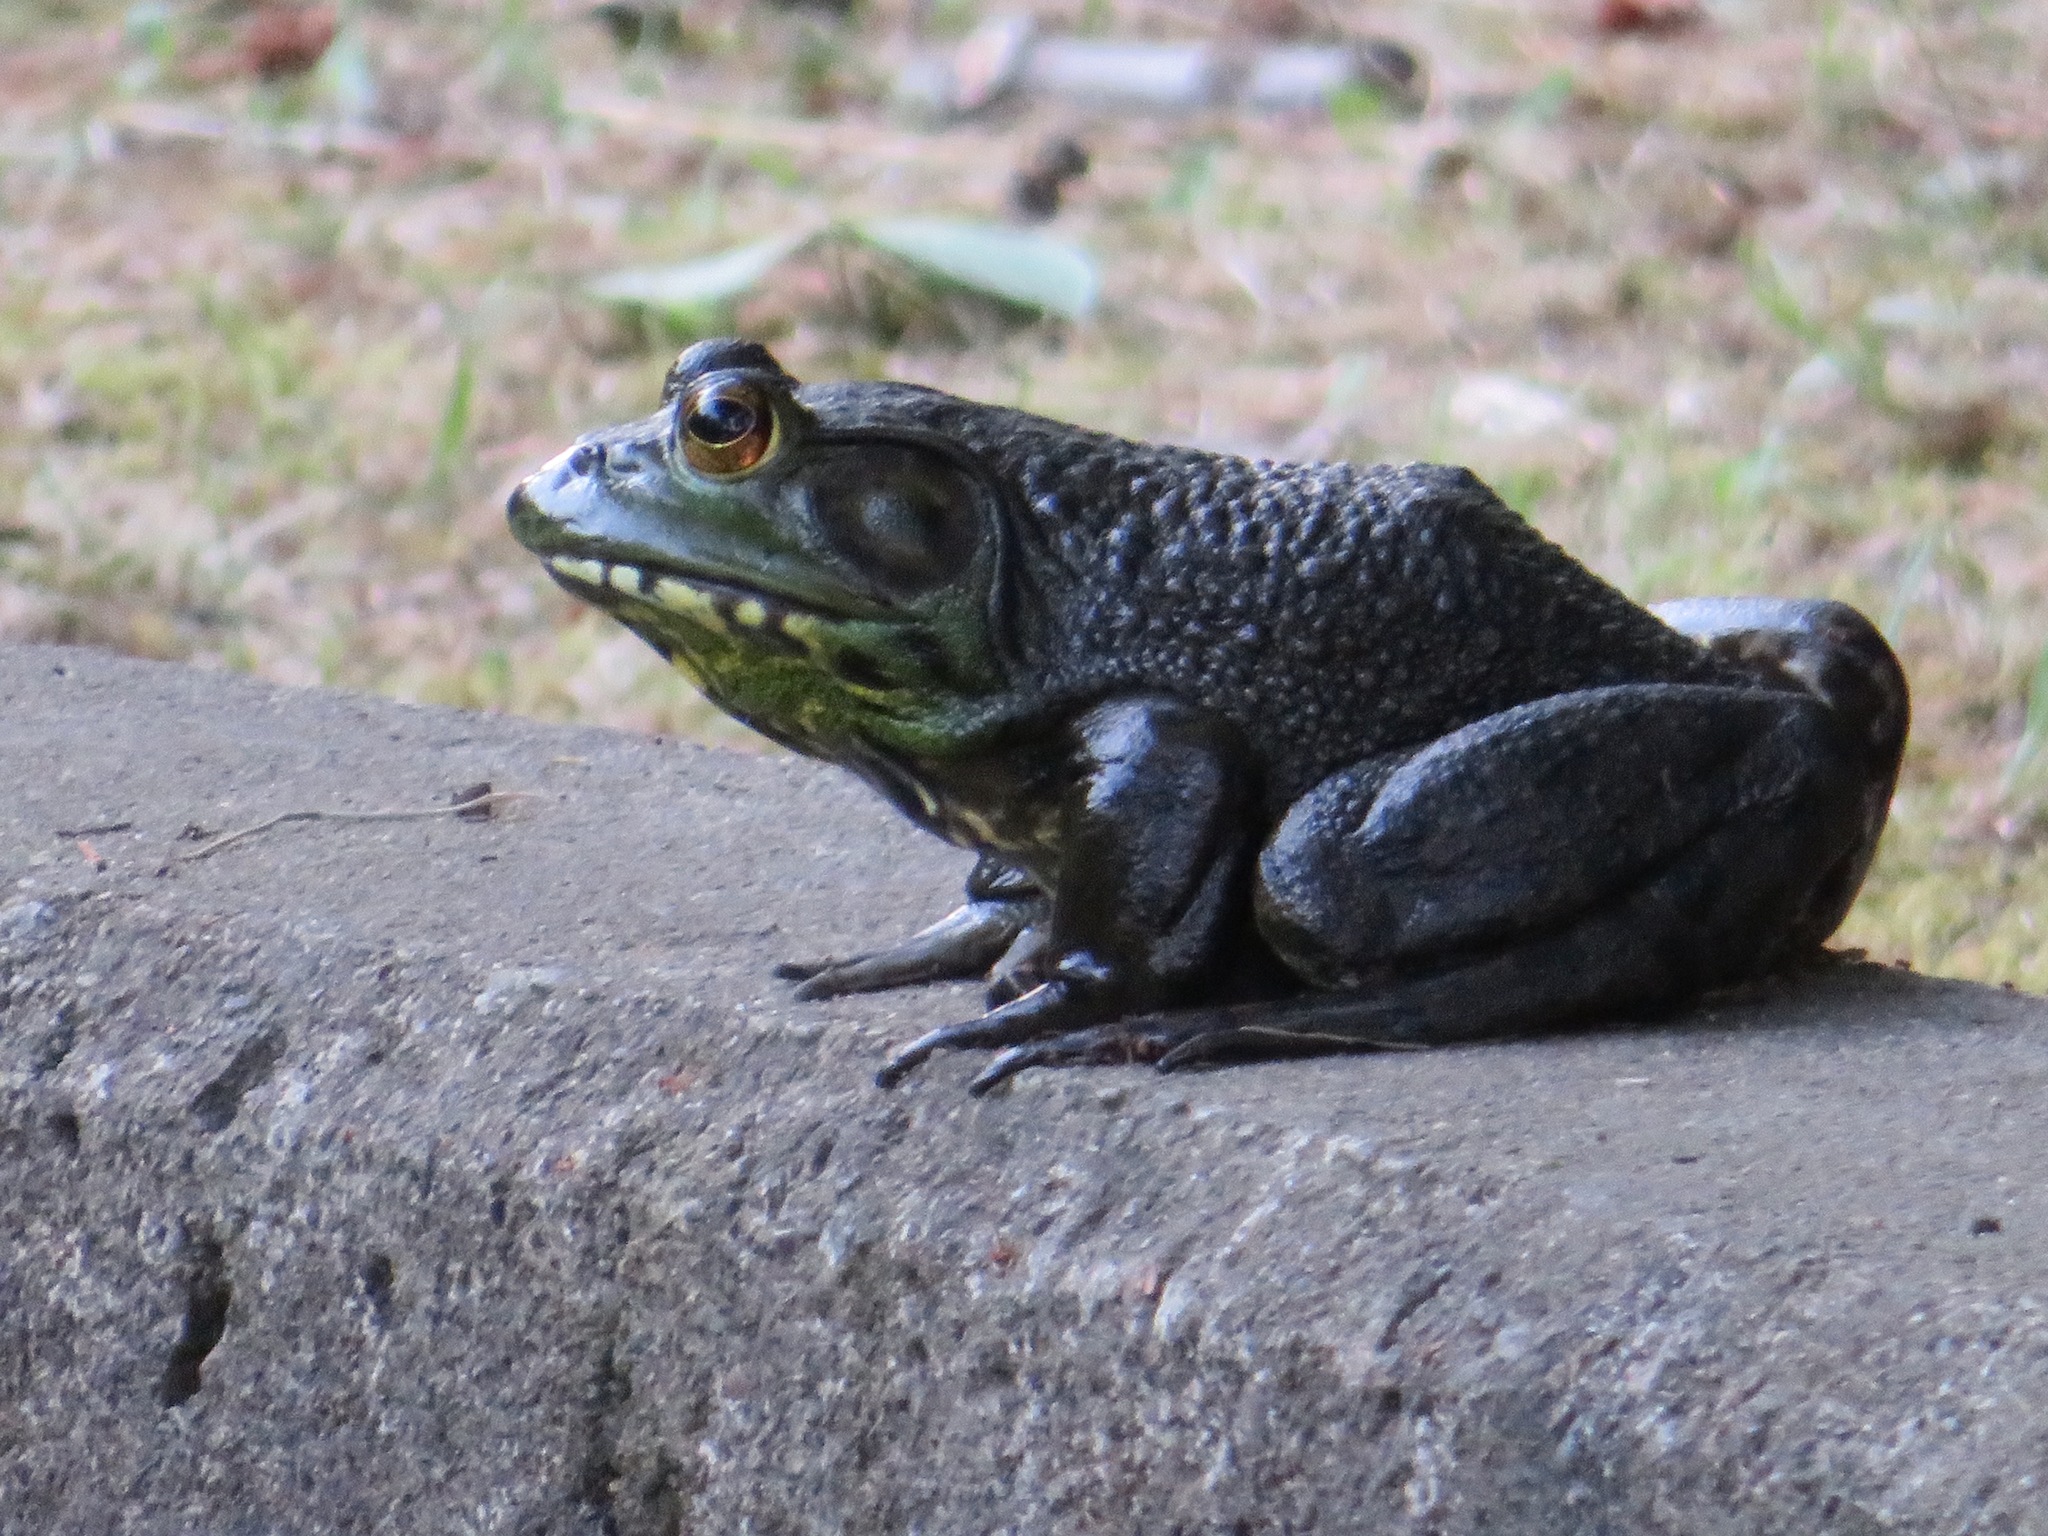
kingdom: Animalia
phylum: Chordata
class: Amphibia
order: Anura
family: Ranidae
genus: Lithobates
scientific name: Lithobates catesbeianus
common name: American bullfrog
